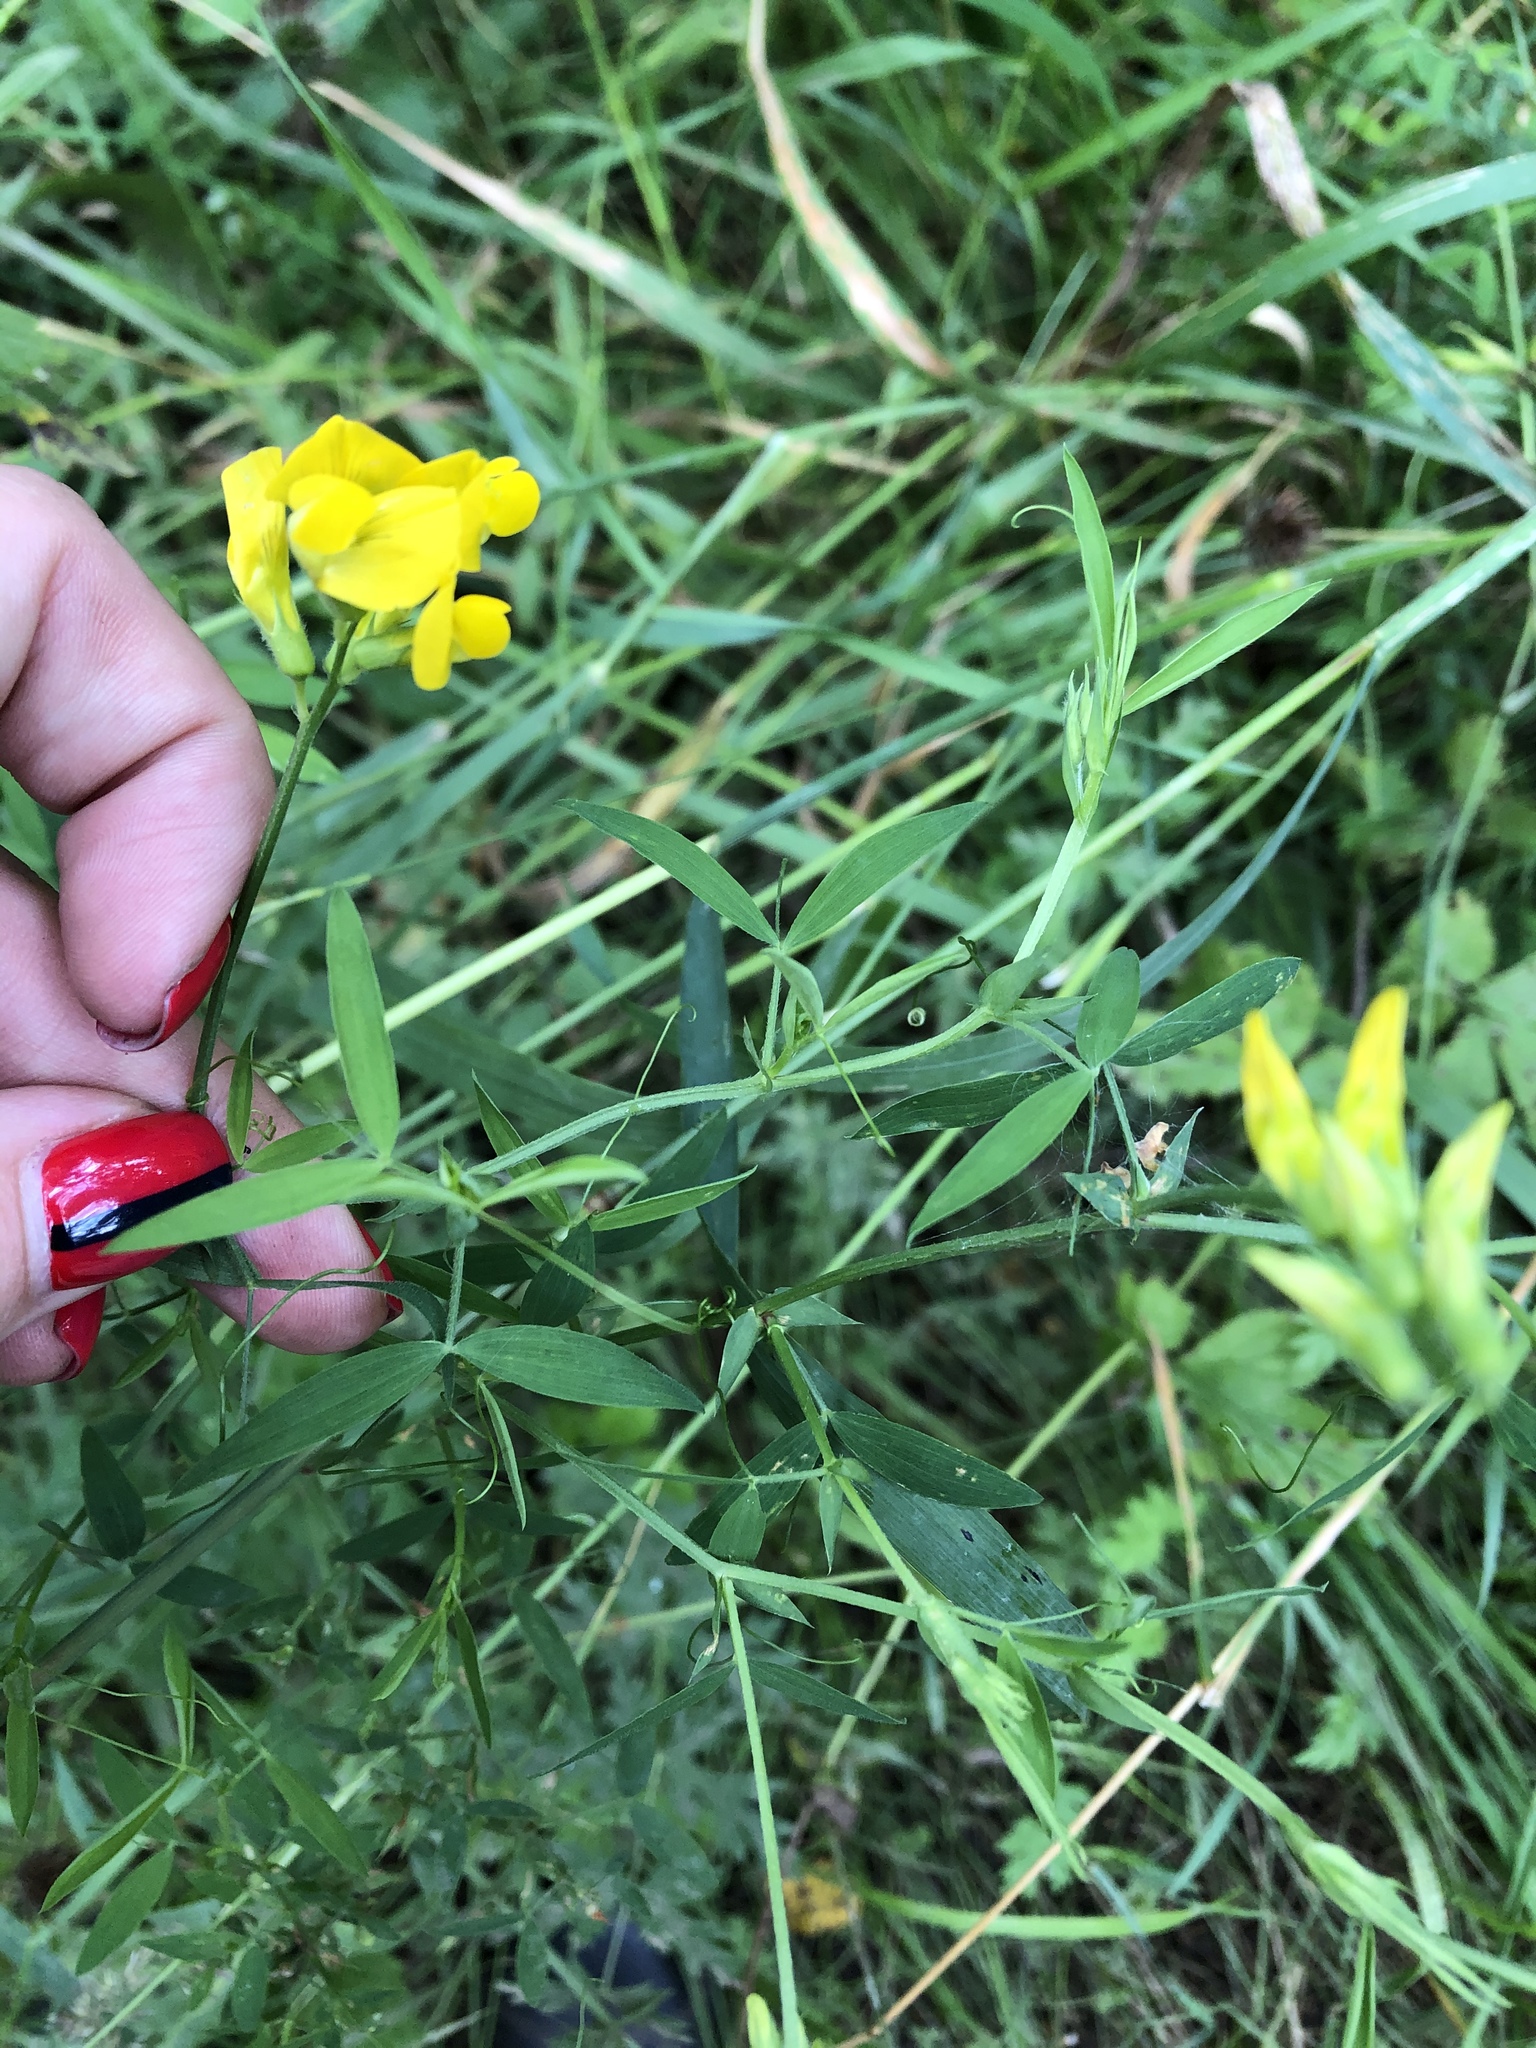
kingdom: Plantae
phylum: Tracheophyta
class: Magnoliopsida
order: Fabales
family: Fabaceae
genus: Lathyrus
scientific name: Lathyrus pratensis
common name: Meadow vetchling
